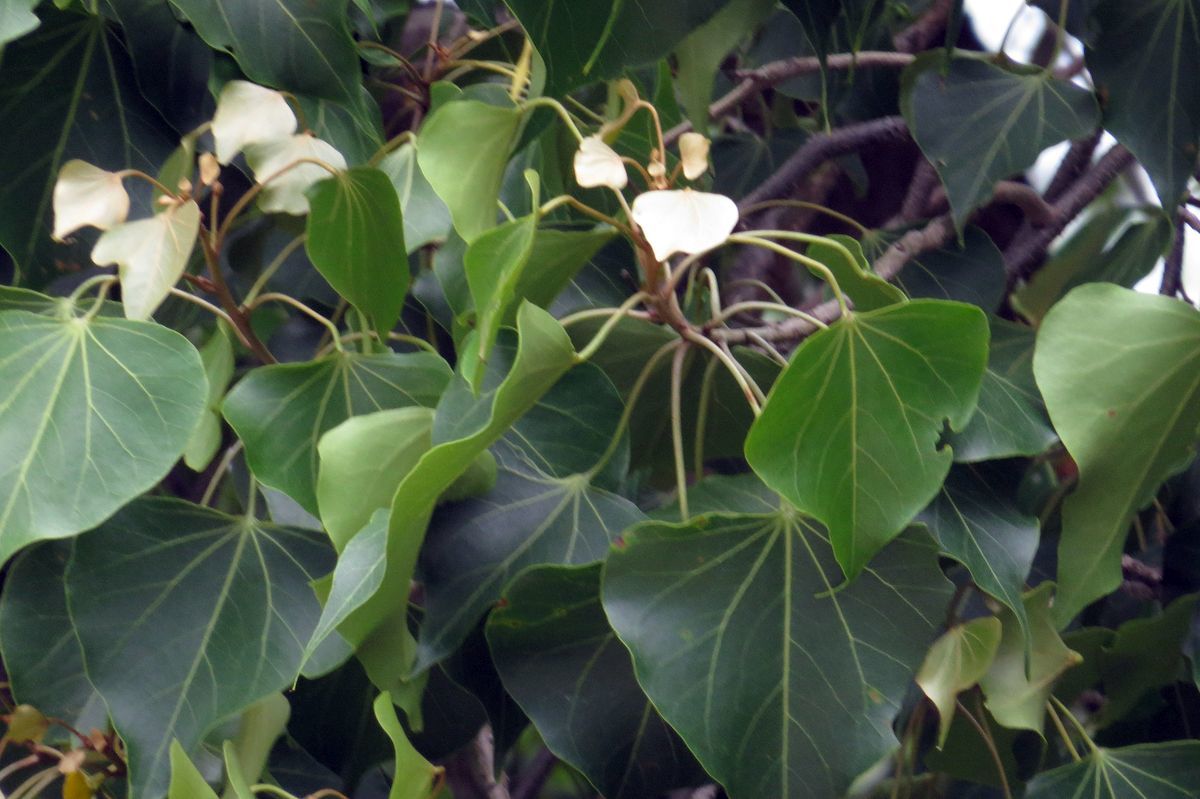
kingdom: Plantae
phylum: Tracheophyta
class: Magnoliopsida
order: Malvales
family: Malvaceae
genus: Thespesia
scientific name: Thespesia populneoides
